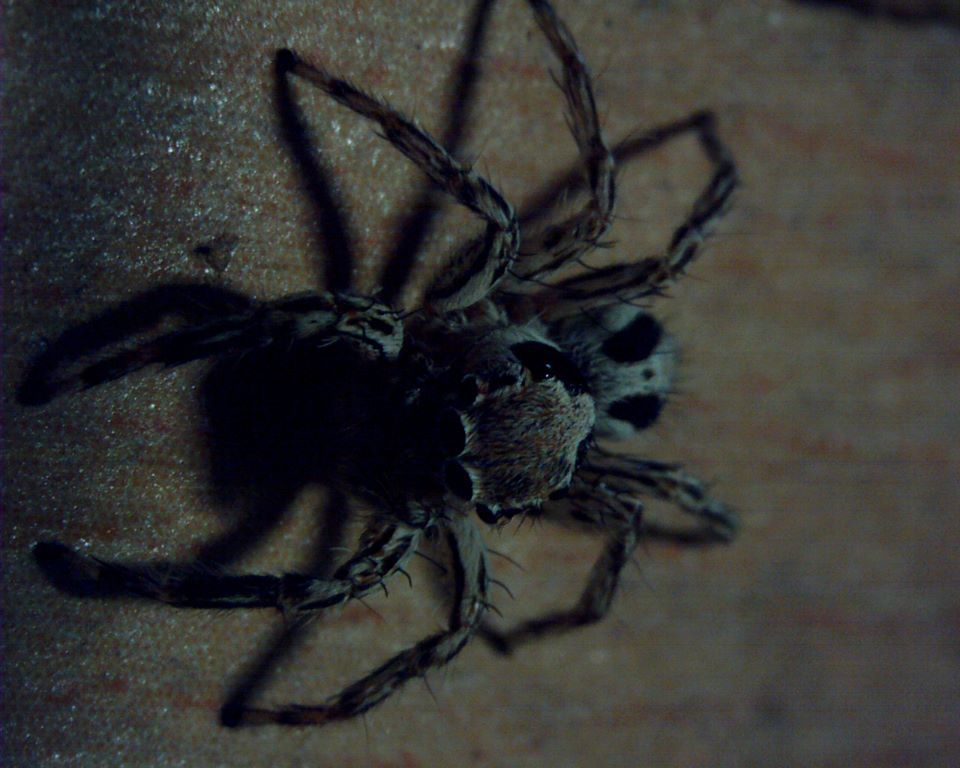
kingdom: Animalia
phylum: Arthropoda
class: Arachnida
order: Araneae
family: Salticidae
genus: Plexippus
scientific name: Plexippus petersi
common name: Jumping spider
